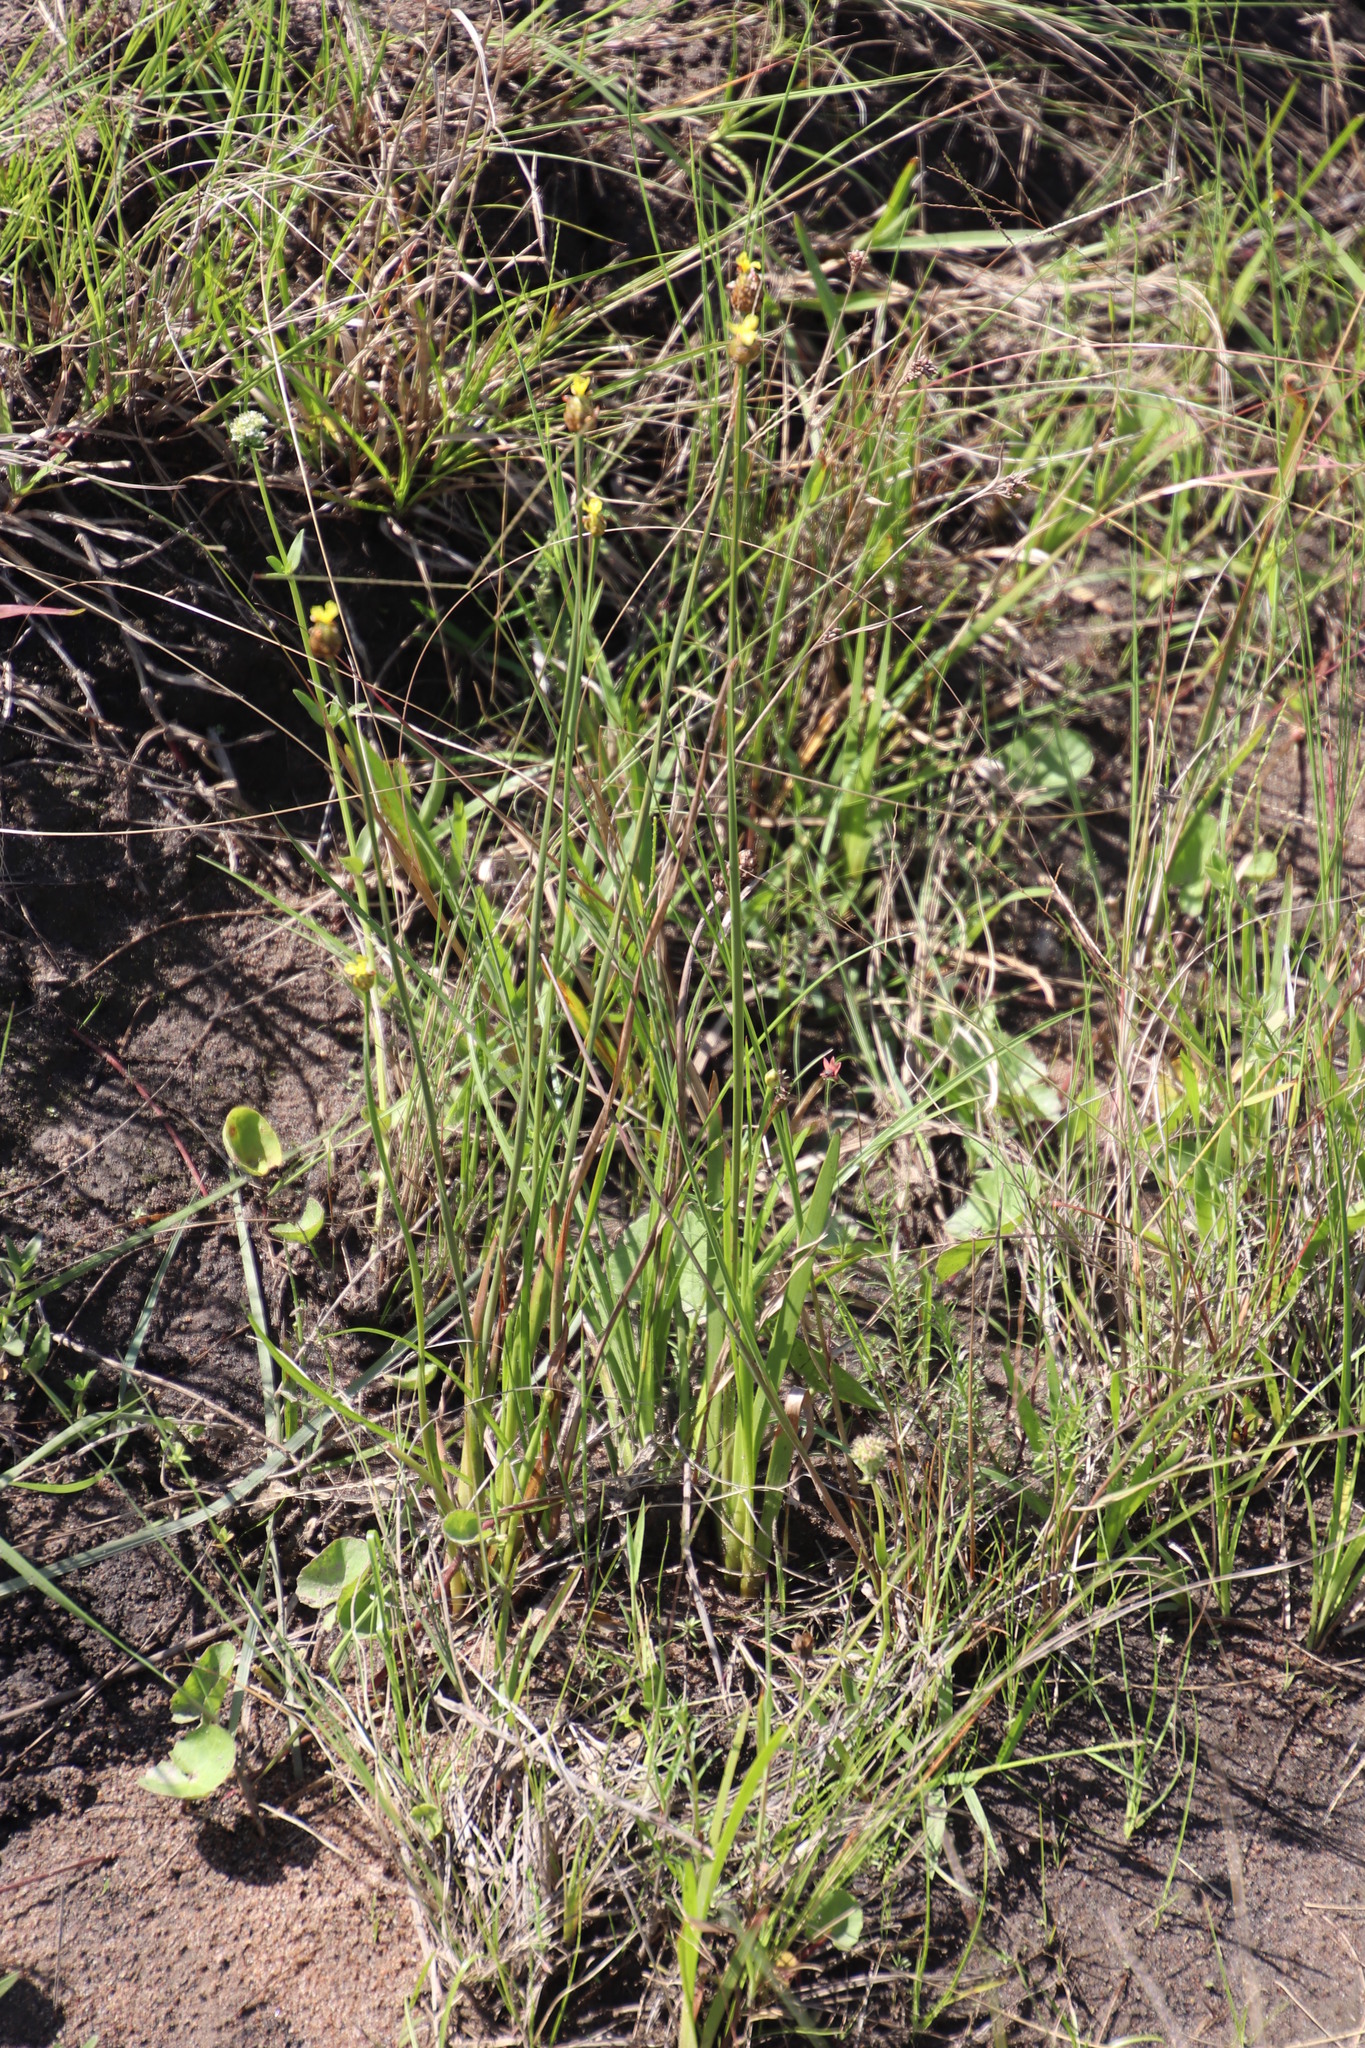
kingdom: Plantae
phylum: Tracheophyta
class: Liliopsida
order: Poales
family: Xyridaceae
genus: Xyris
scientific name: Xyris capensis
